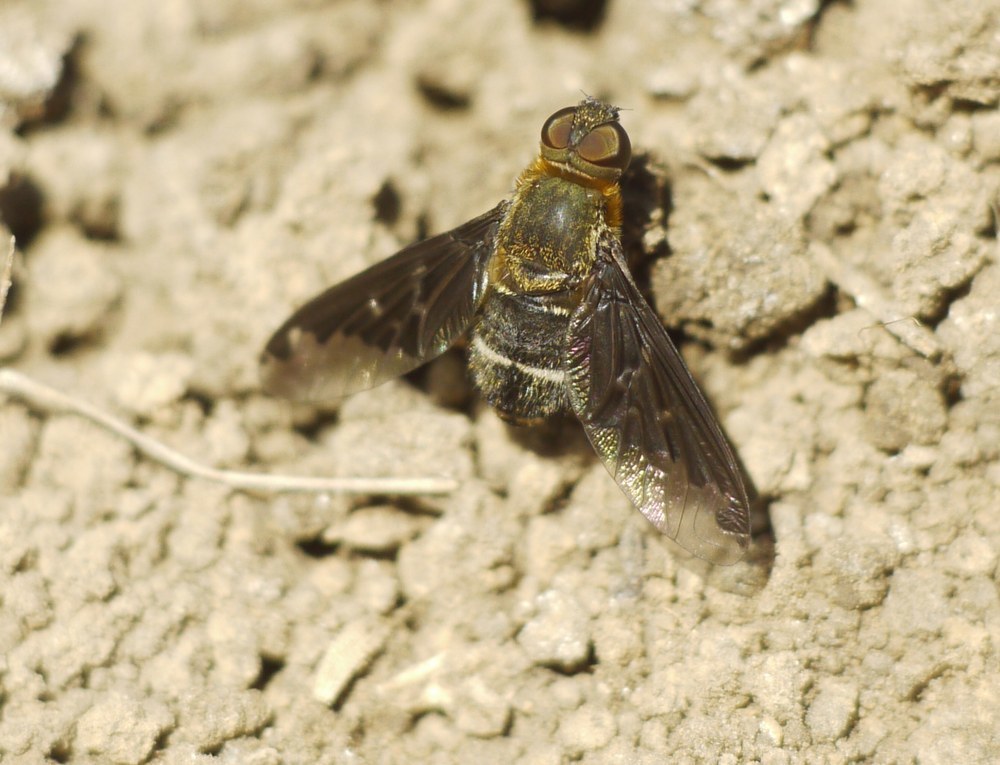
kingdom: Animalia
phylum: Arthropoda
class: Insecta
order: Diptera
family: Bombyliidae
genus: Hemipenthes
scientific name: Hemipenthes velutina
